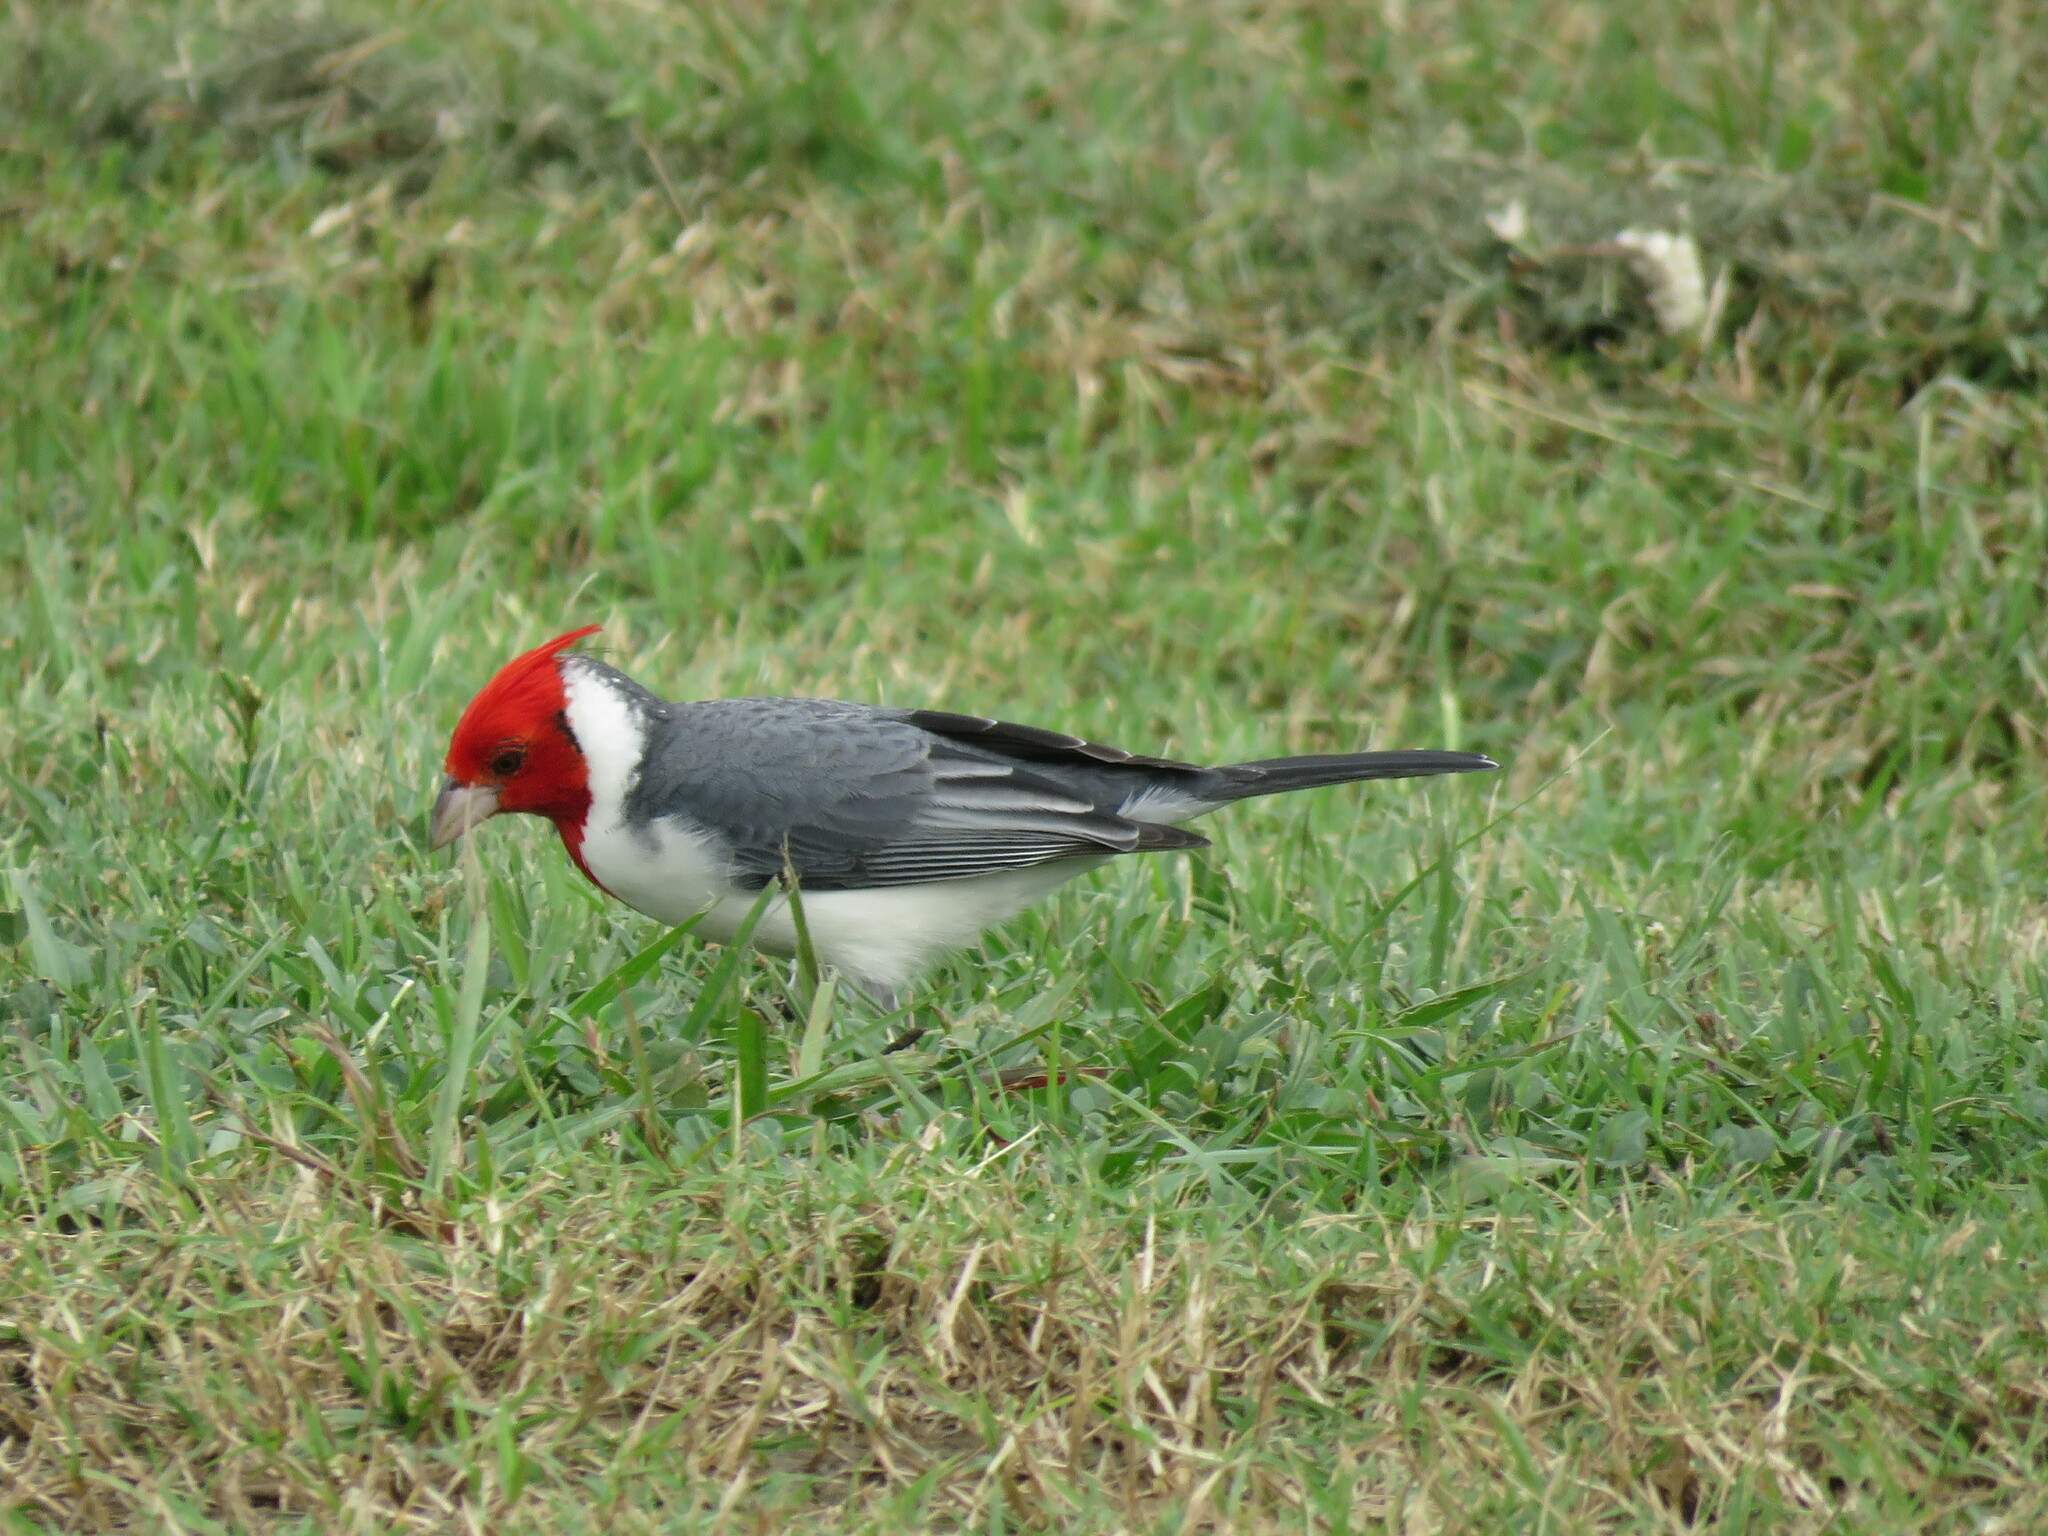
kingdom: Animalia
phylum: Chordata
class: Aves
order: Passeriformes
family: Thraupidae
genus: Paroaria
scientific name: Paroaria coronata
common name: Red-crested cardinal
